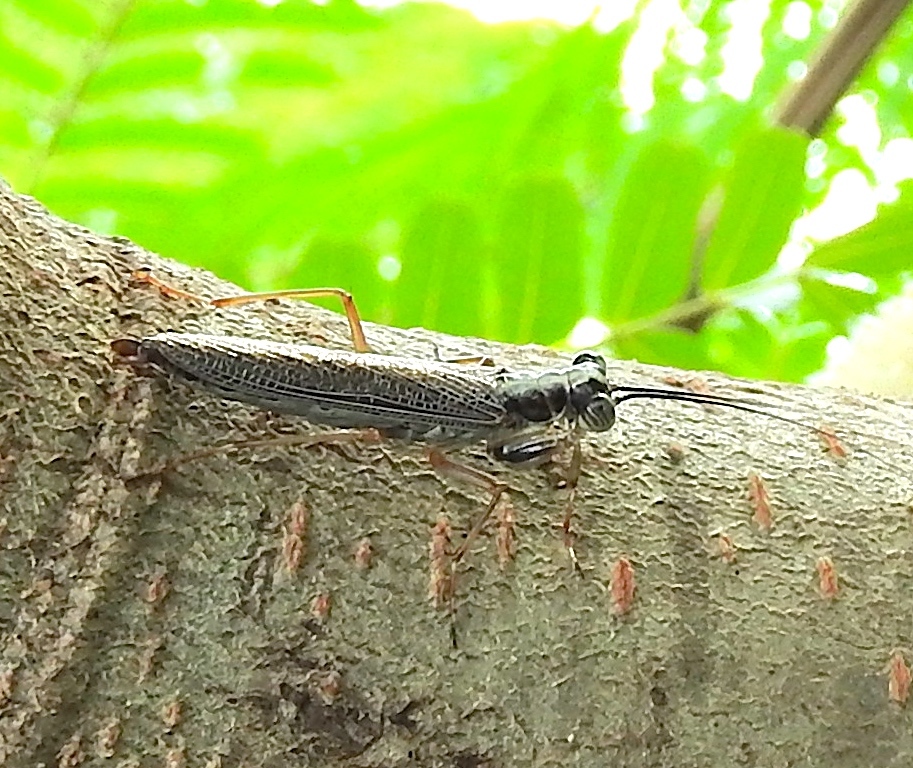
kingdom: Animalia
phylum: Arthropoda
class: Insecta
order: Mantodea
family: Mantoididae
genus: Mantoida
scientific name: Mantoida maya
